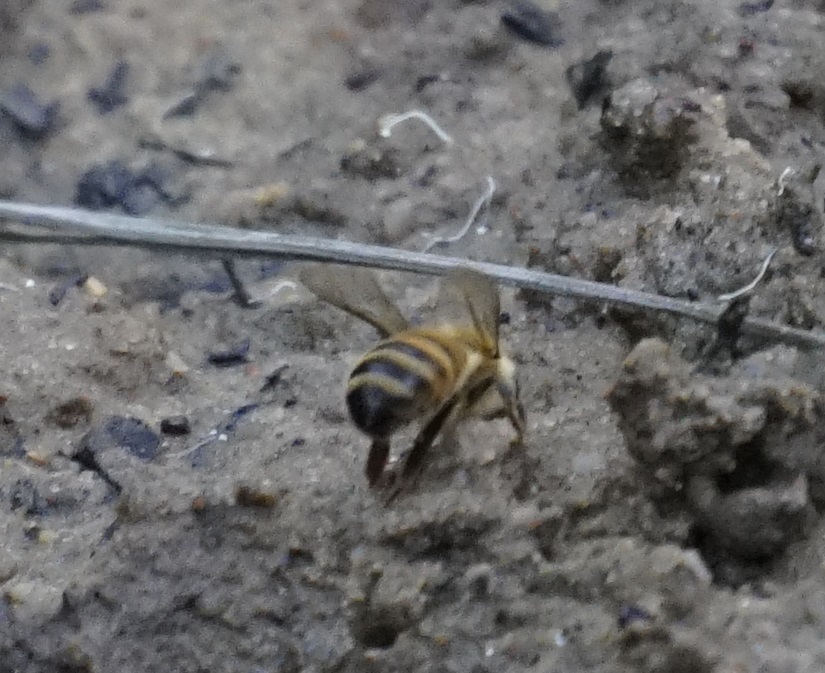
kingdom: Animalia
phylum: Arthropoda
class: Insecta
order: Hymenoptera
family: Apidae
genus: Apis
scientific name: Apis mellifera
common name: Honey bee
